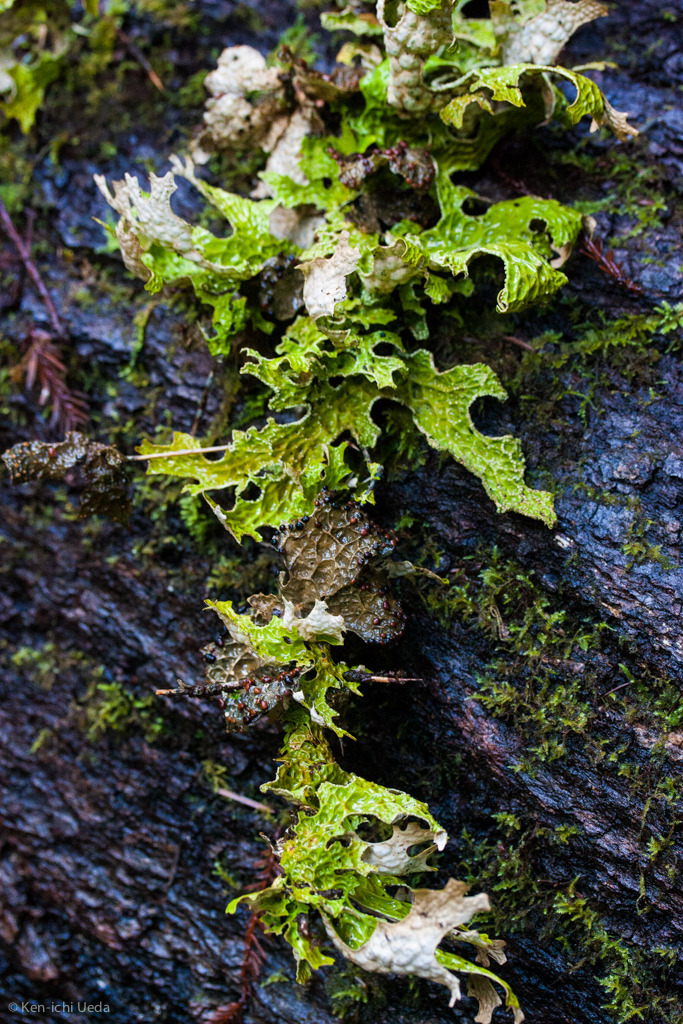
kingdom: Fungi
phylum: Ascomycota
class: Lecanoromycetes
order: Peltigerales
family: Lobariaceae
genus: Lobaria
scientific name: Lobaria pulmonaria
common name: Lungwort
